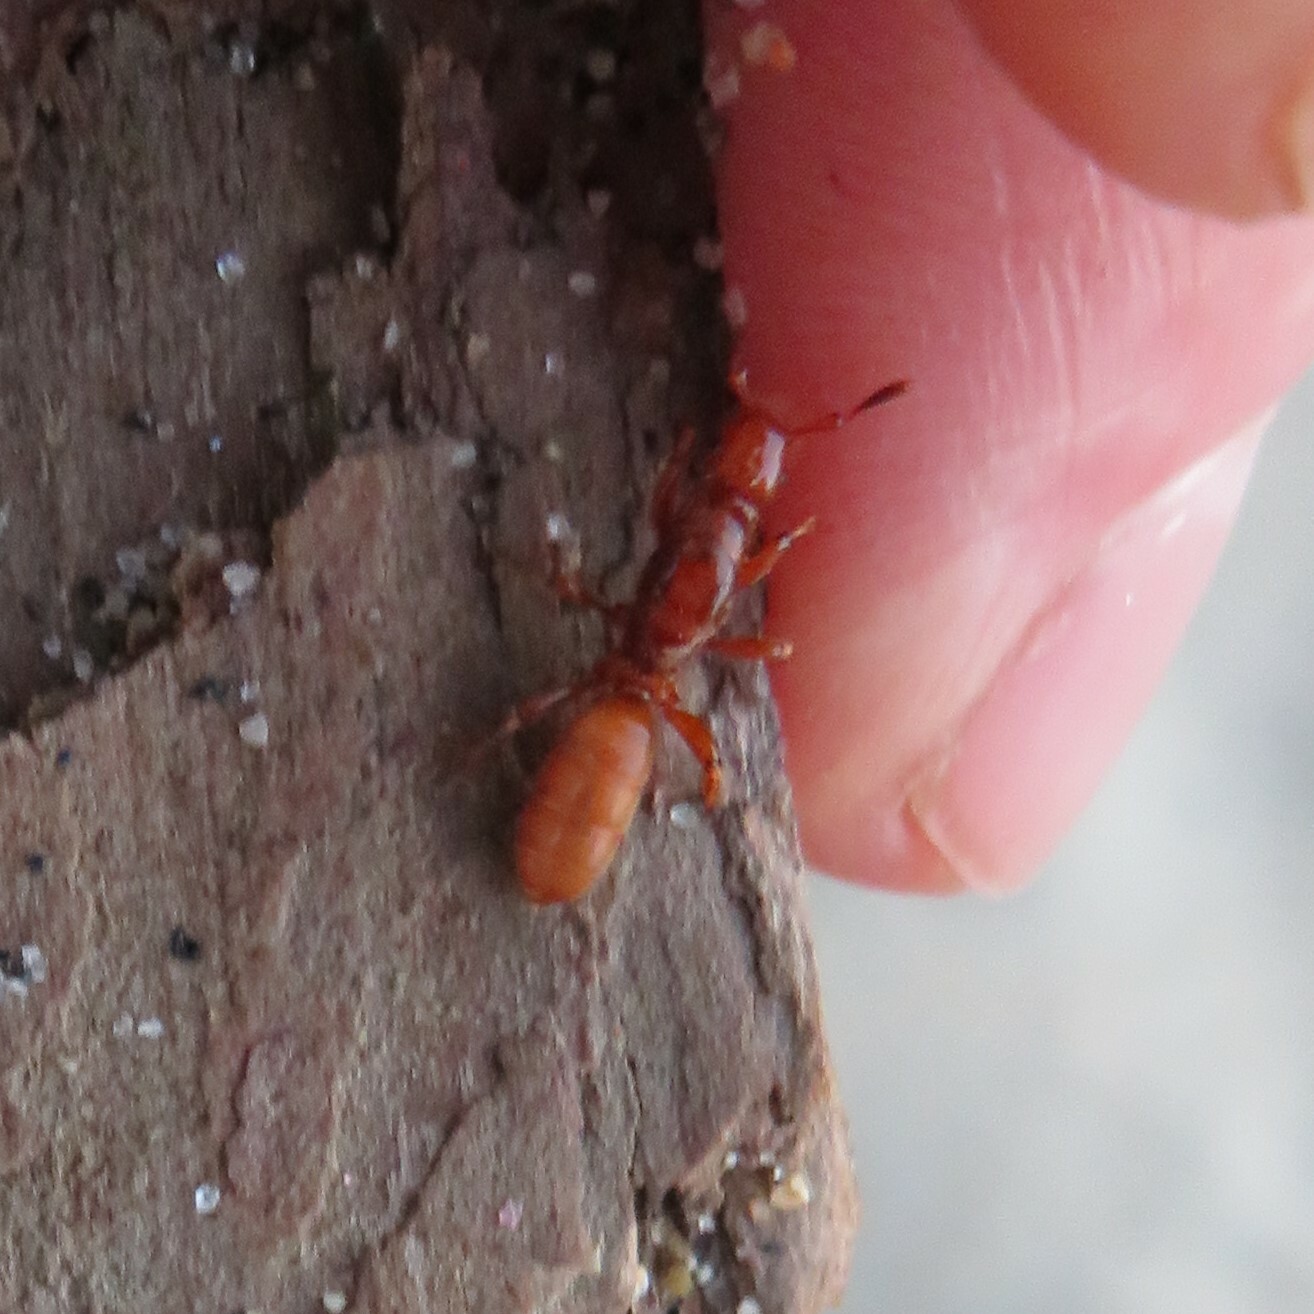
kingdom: Animalia
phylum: Arthropoda
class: Insecta
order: Hymenoptera
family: Formicidae
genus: Acanthomyops
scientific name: Acanthomyops latipes
